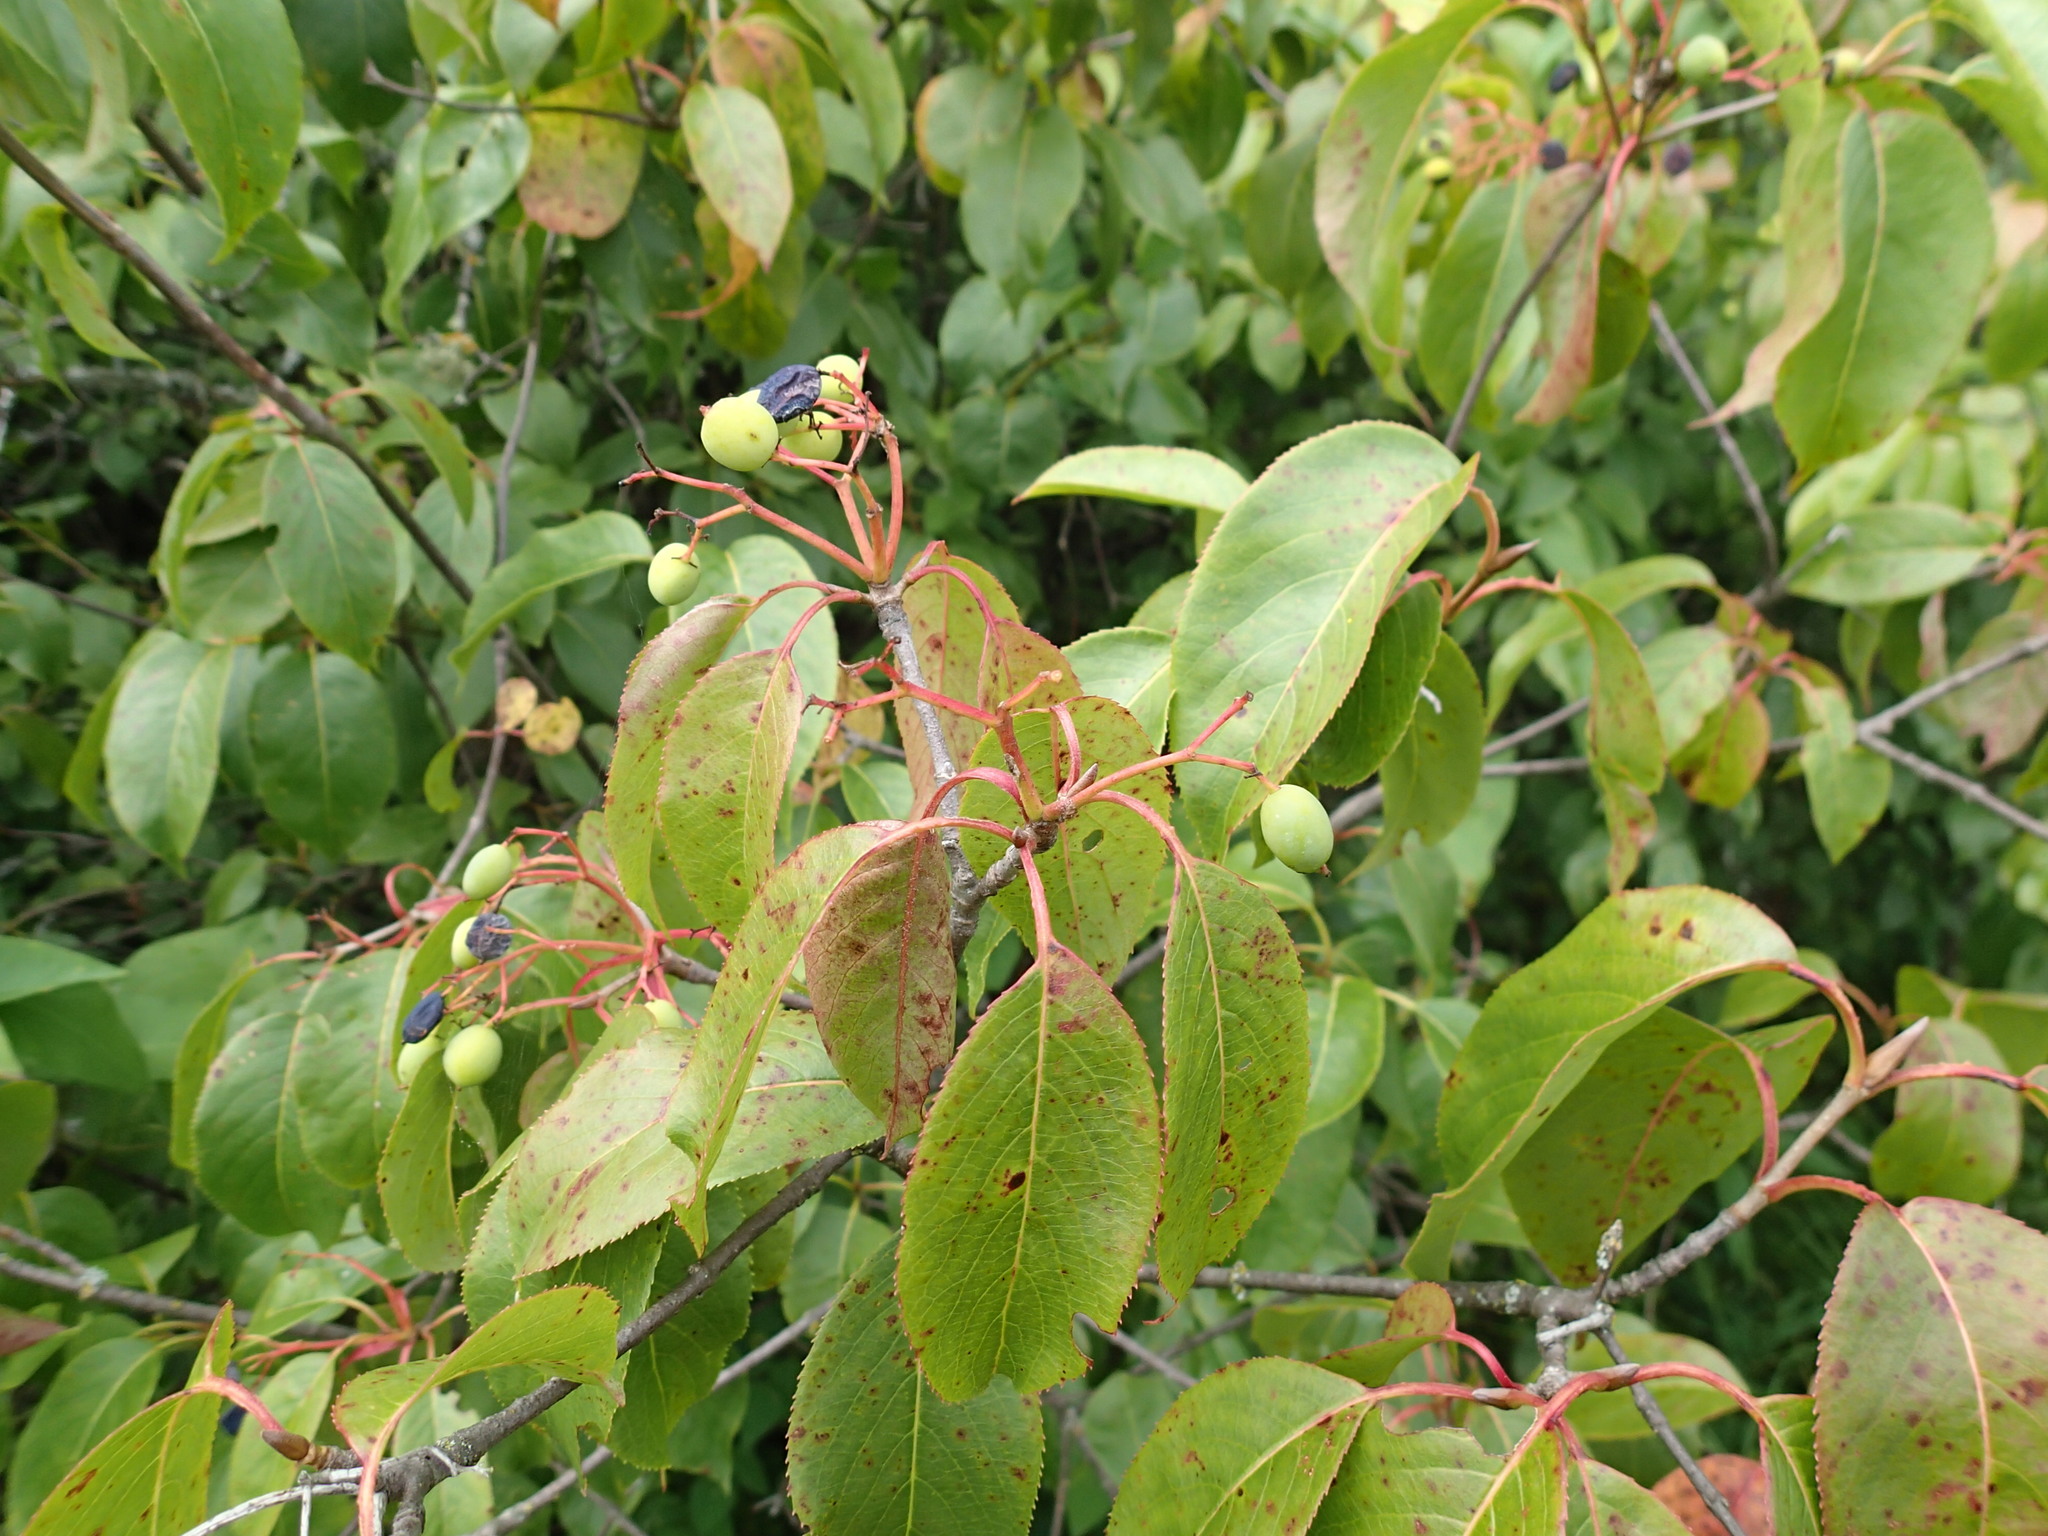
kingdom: Plantae
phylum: Tracheophyta
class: Magnoliopsida
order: Dipsacales
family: Viburnaceae
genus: Viburnum
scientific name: Viburnum lentago
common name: Black haw
